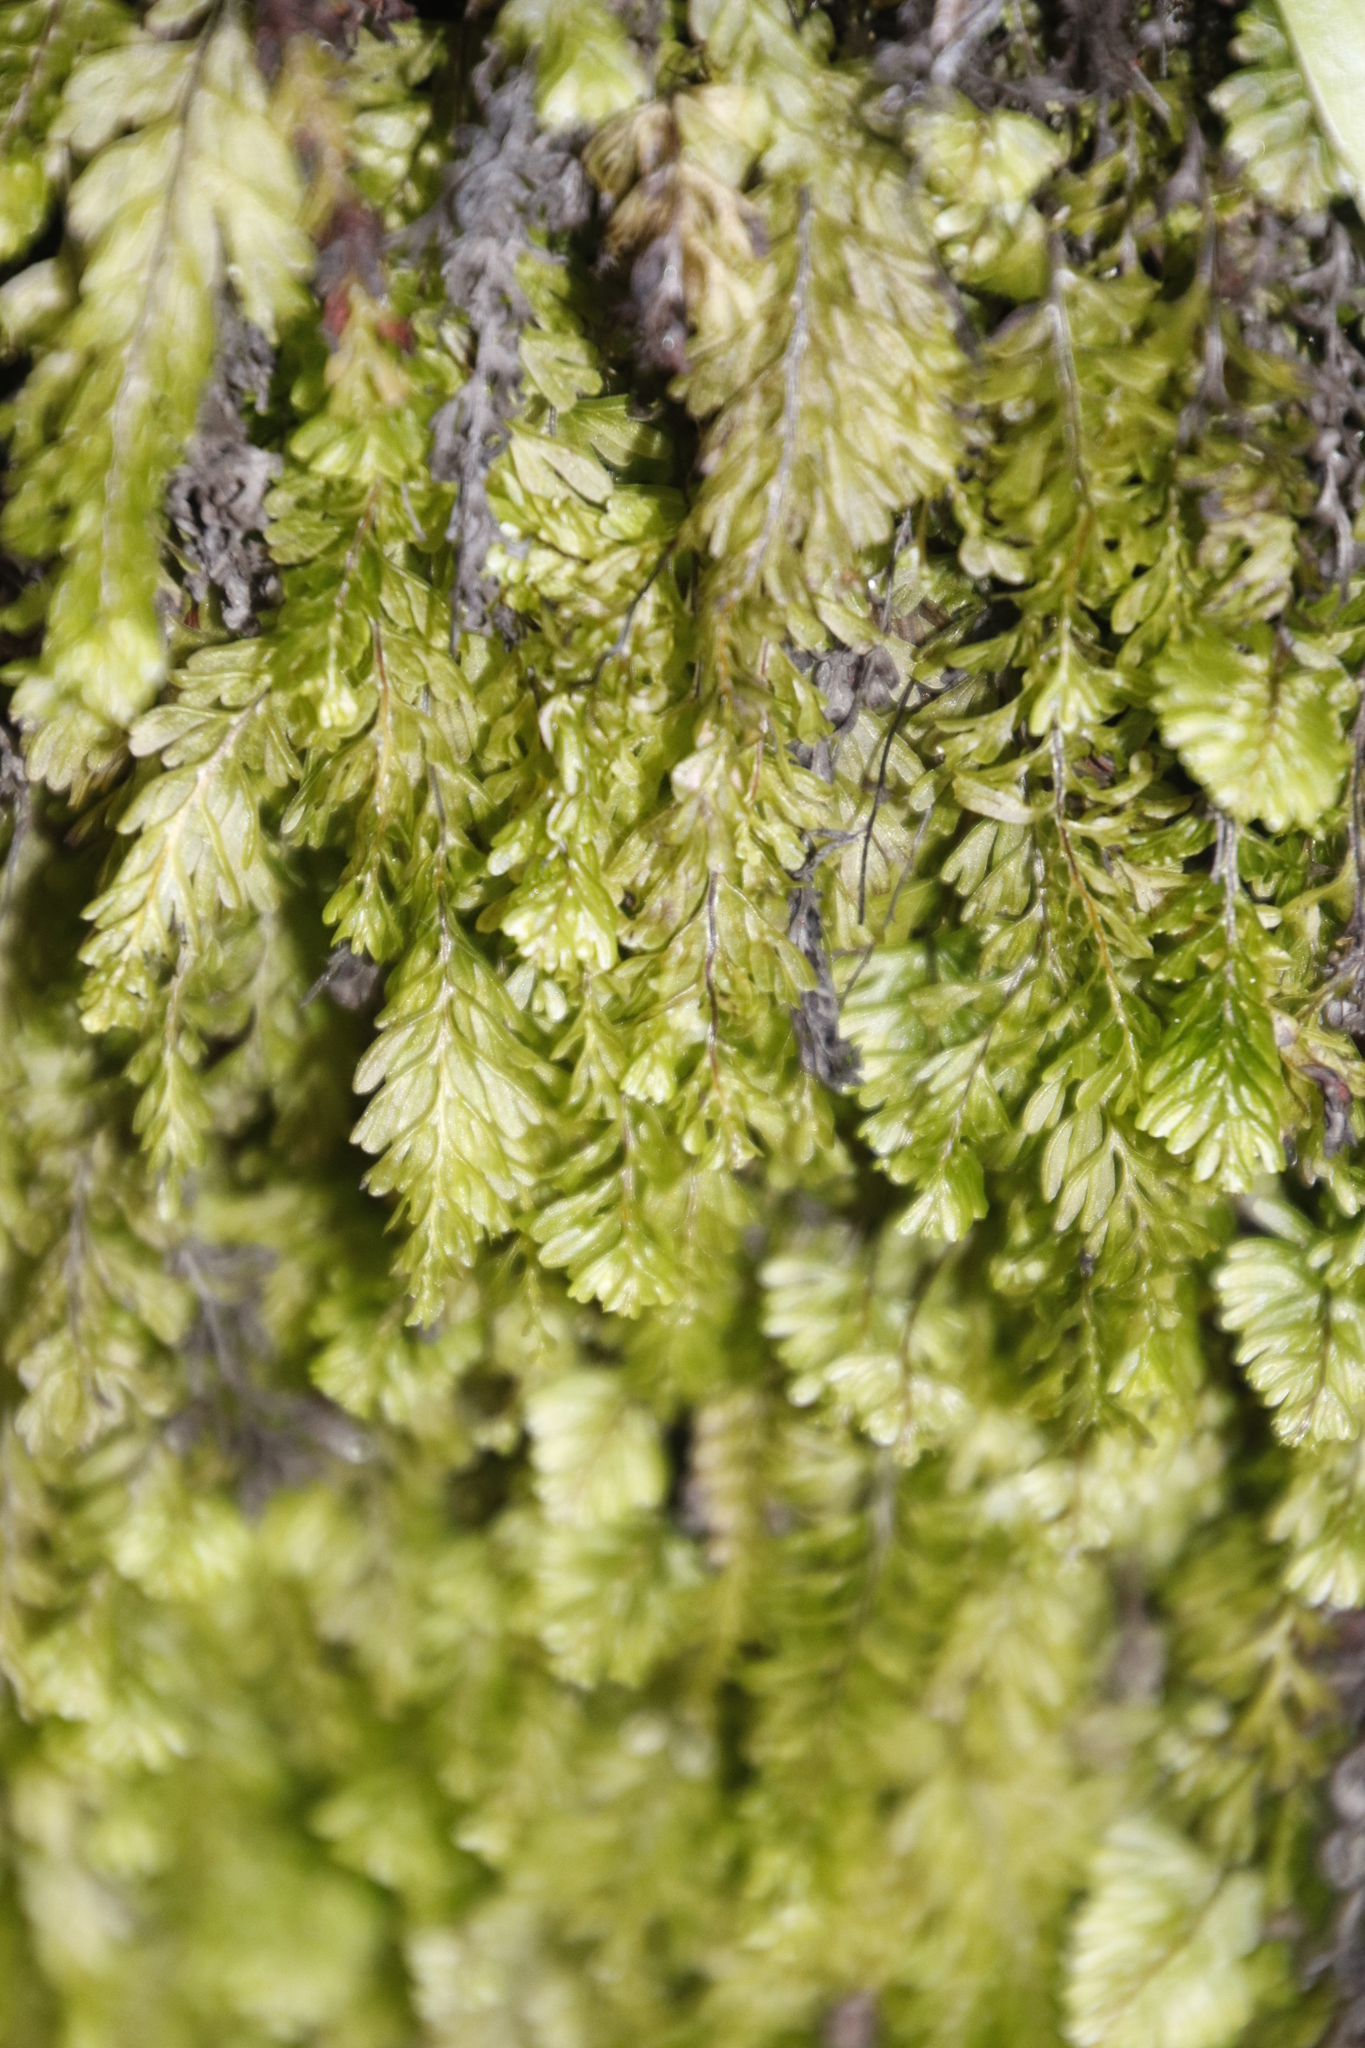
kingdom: Plantae
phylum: Tracheophyta
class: Polypodiopsida
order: Hymenophyllales
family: Hymenophyllaceae
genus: Hymenophyllum
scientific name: Hymenophyllum capense
